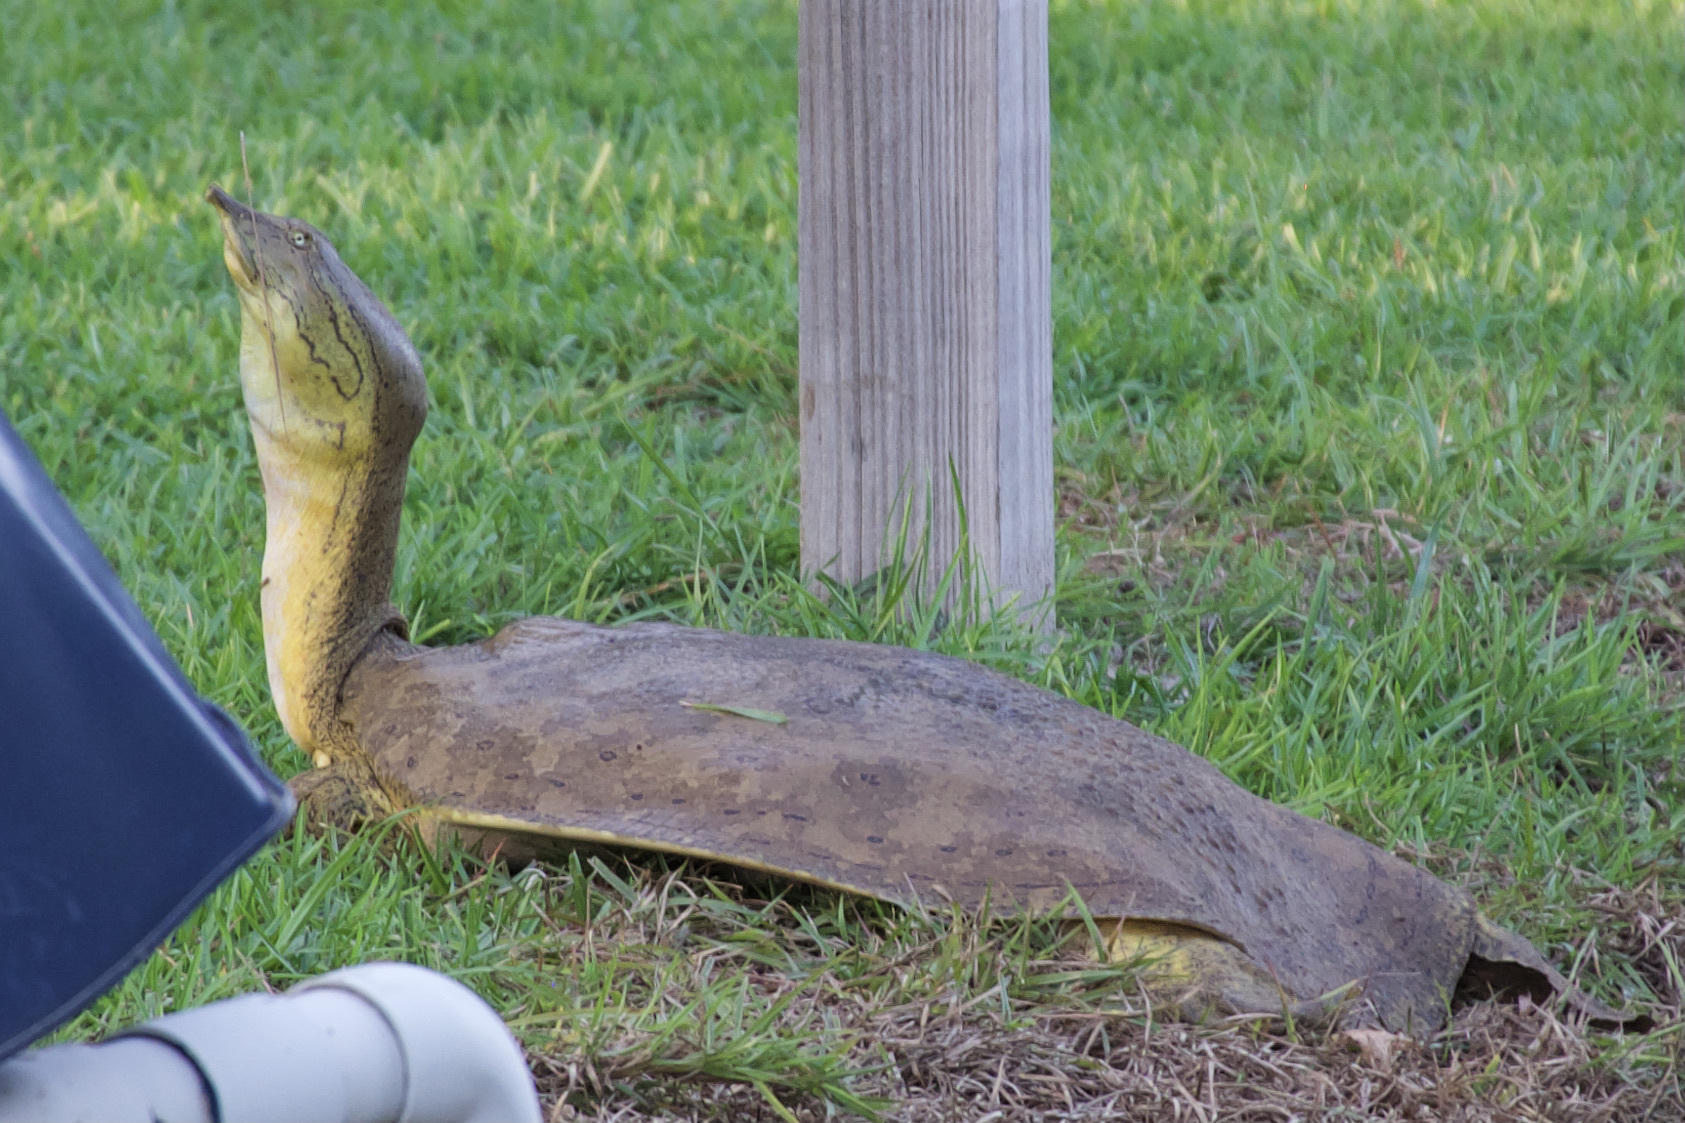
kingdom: Animalia
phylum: Chordata
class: Testudines
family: Trionychidae
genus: Apalone
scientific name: Apalone spinifera
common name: Spiny softshell turtle
